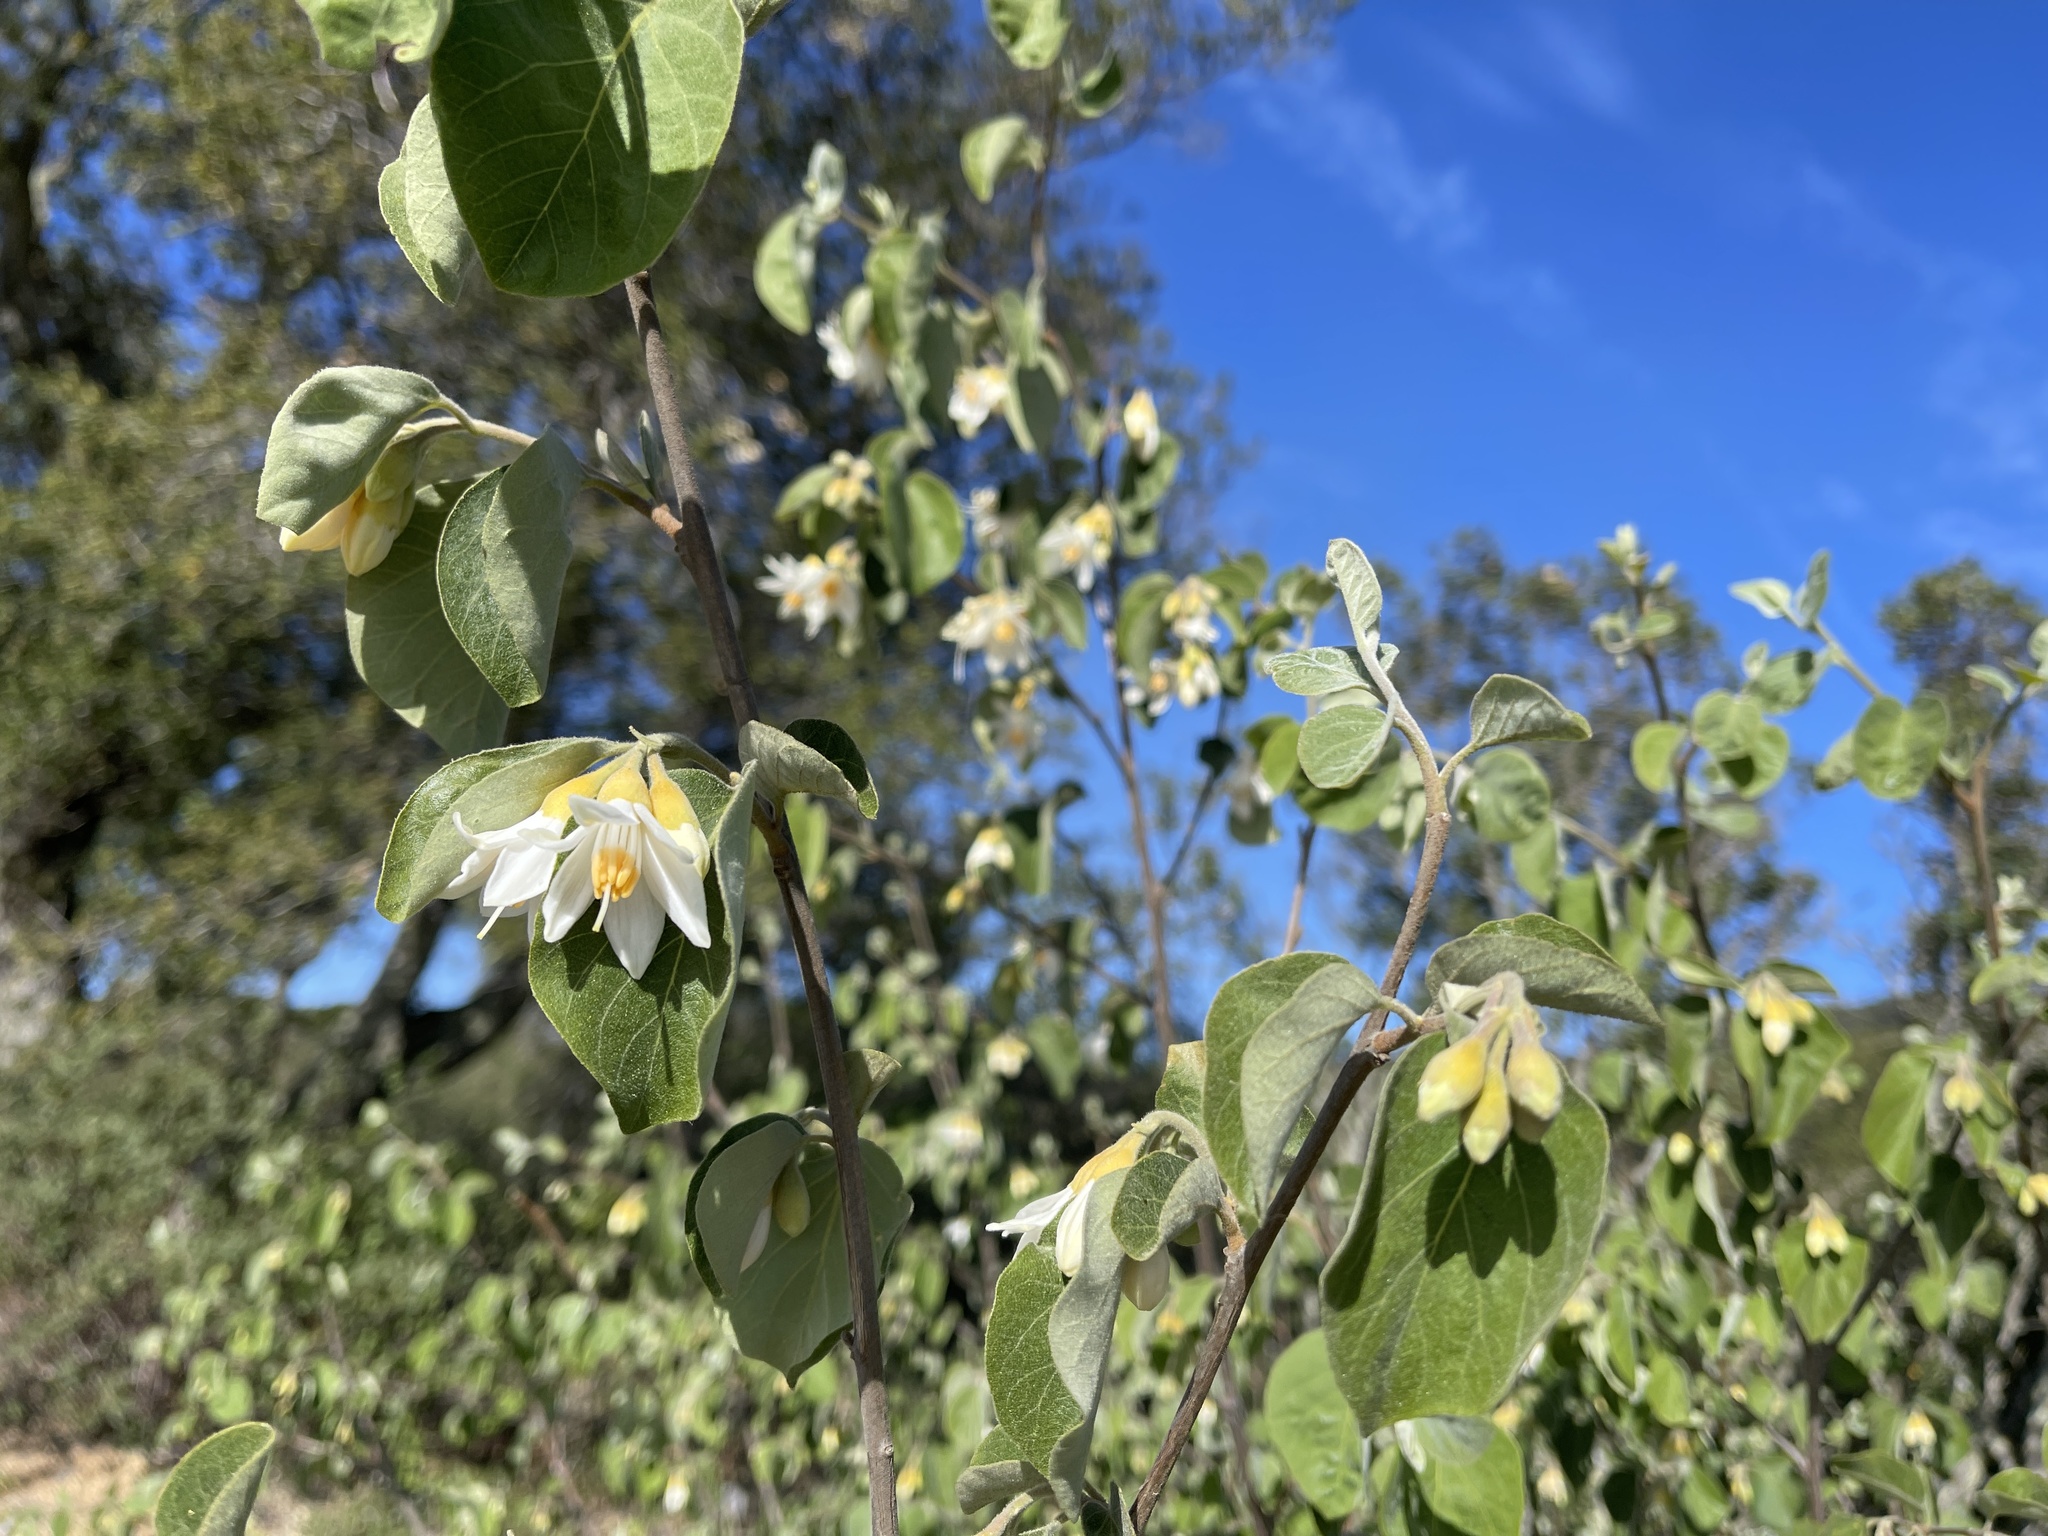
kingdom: Plantae
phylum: Tracheophyta
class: Magnoliopsida
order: Ericales
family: Styracaceae
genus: Styrax
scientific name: Styrax redivivus
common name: California styrax
